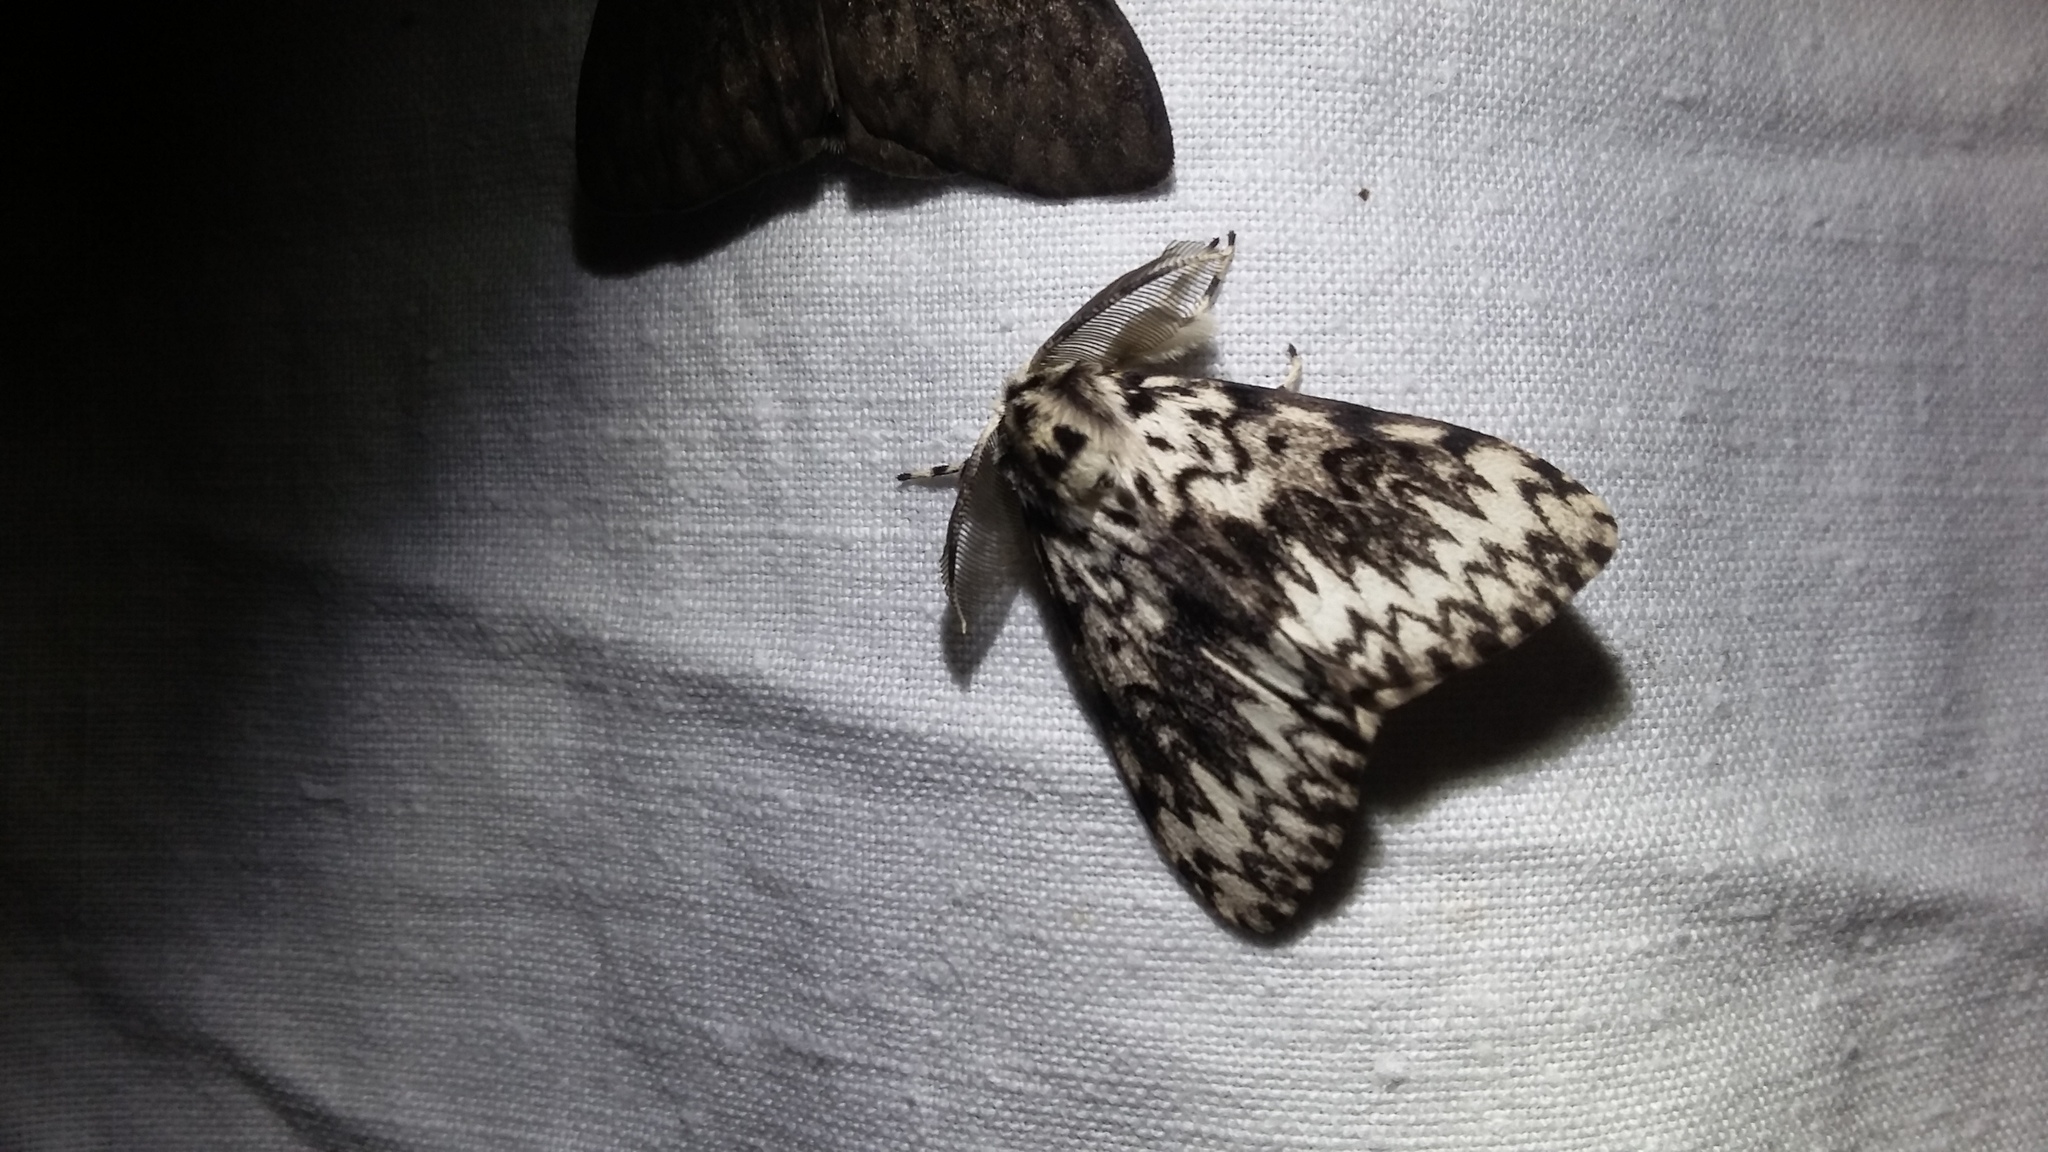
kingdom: Animalia
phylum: Arthropoda
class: Insecta
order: Lepidoptera
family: Erebidae
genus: Lymantria
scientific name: Lymantria monacha
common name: Black arches
